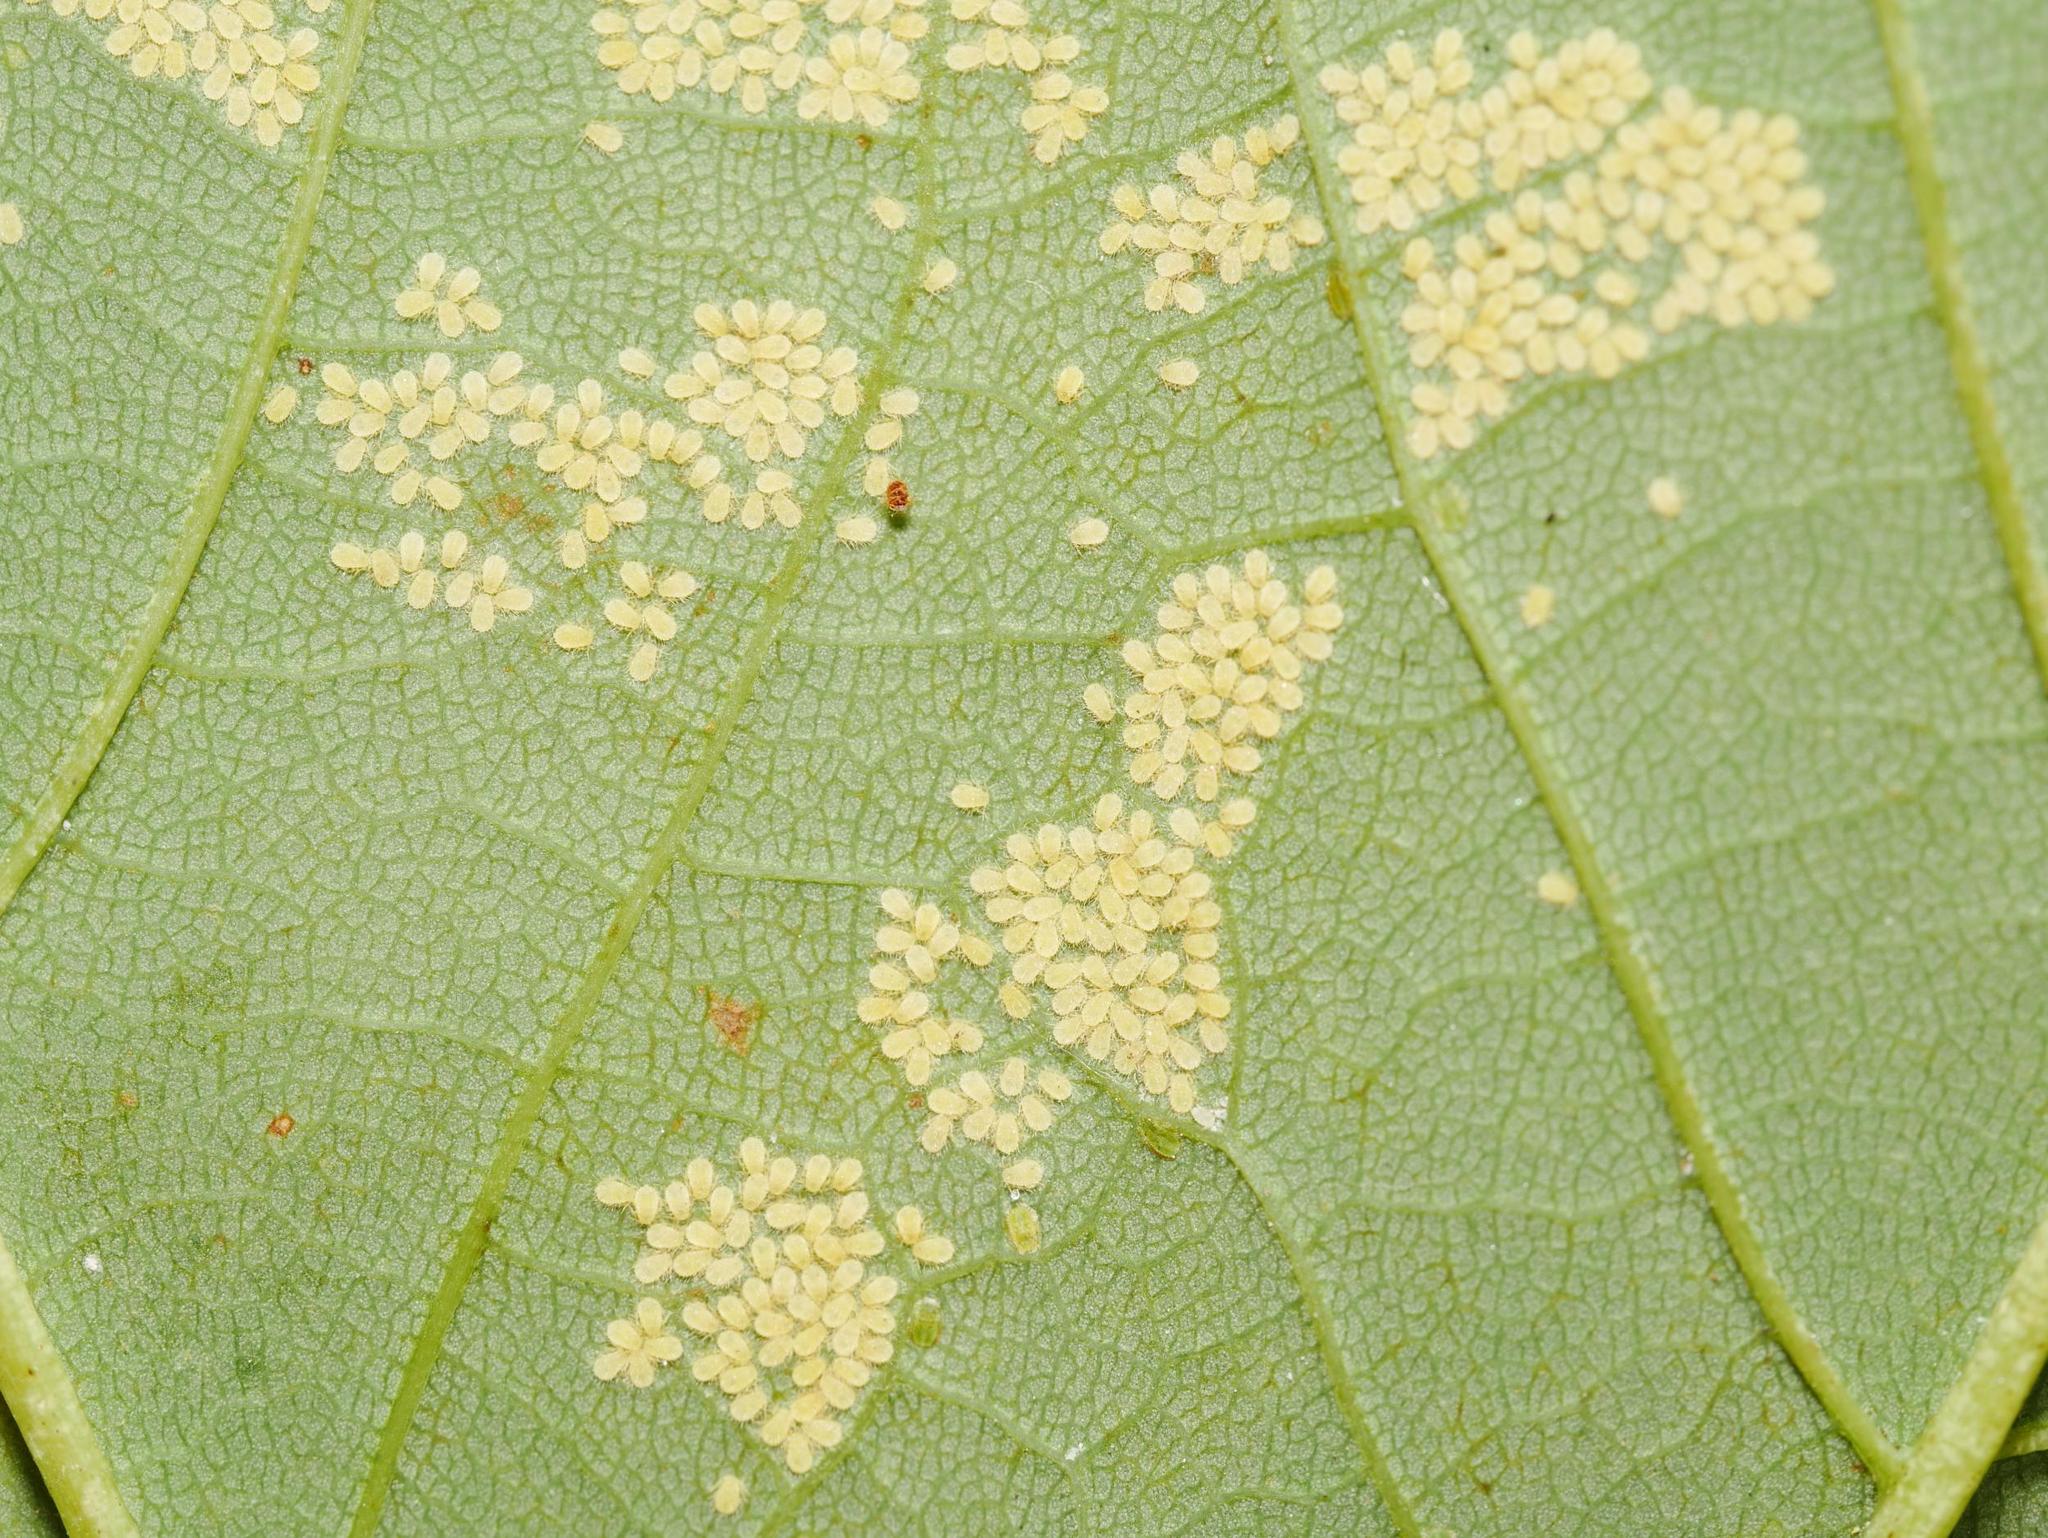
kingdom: Animalia
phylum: Arthropoda
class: Insecta
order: Hemiptera
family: Aphididae
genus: Periphyllus
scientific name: Periphyllus
